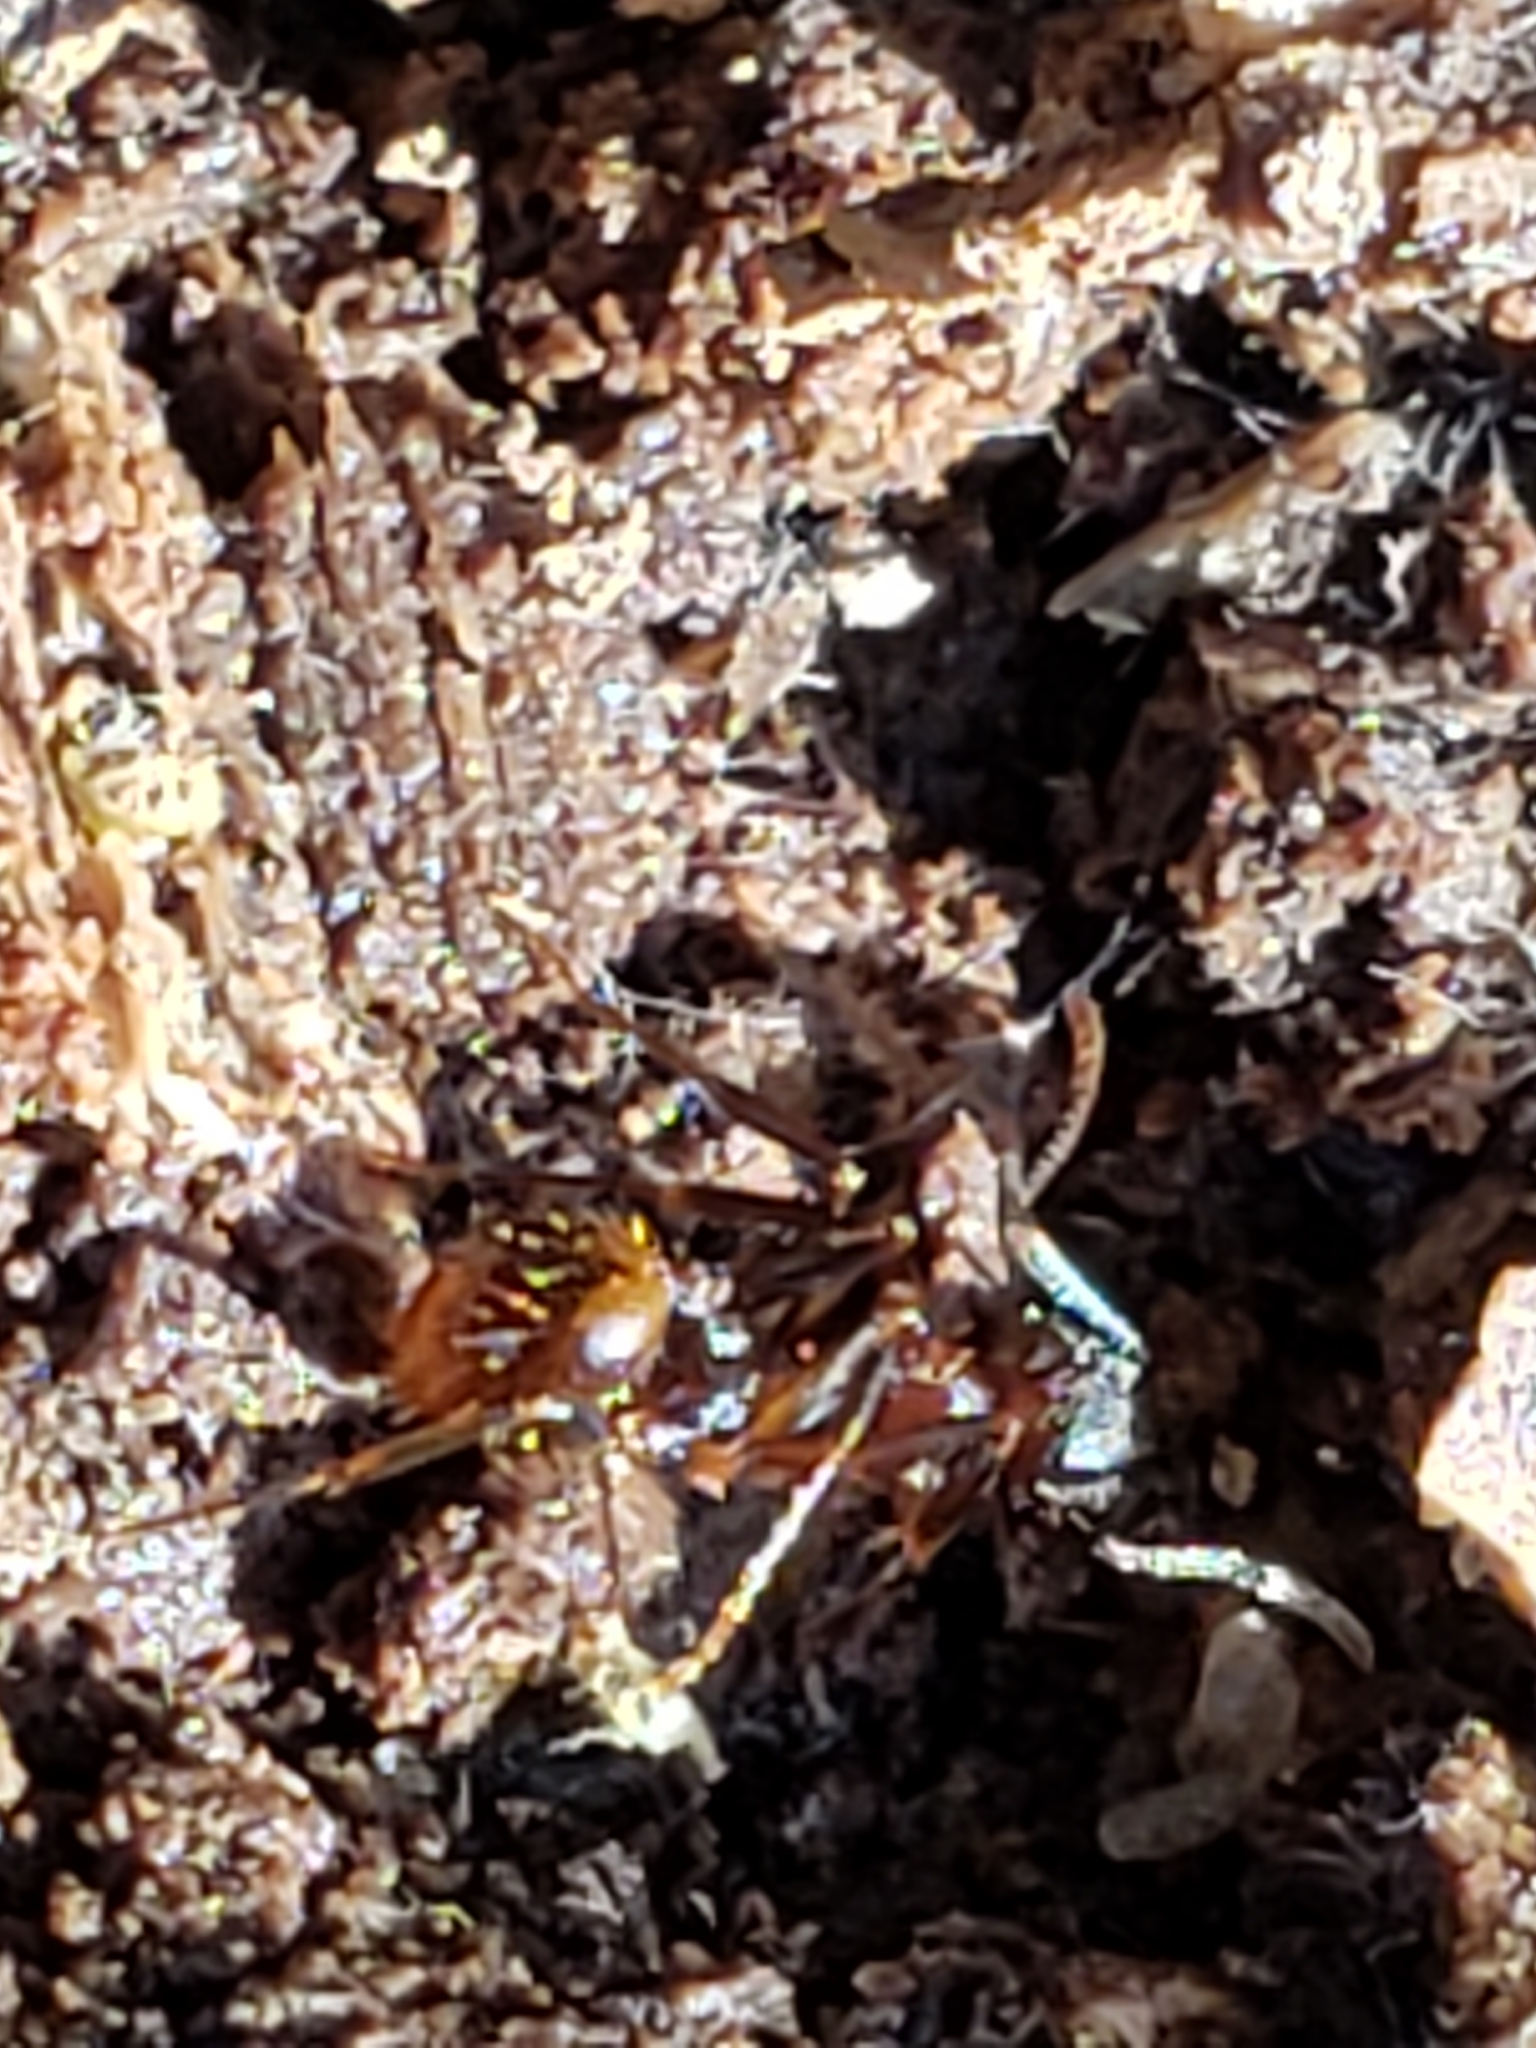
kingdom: Animalia
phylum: Arthropoda
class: Insecta
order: Hymenoptera
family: Formicidae
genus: Aphaenogaster
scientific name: Aphaenogaster fulva
